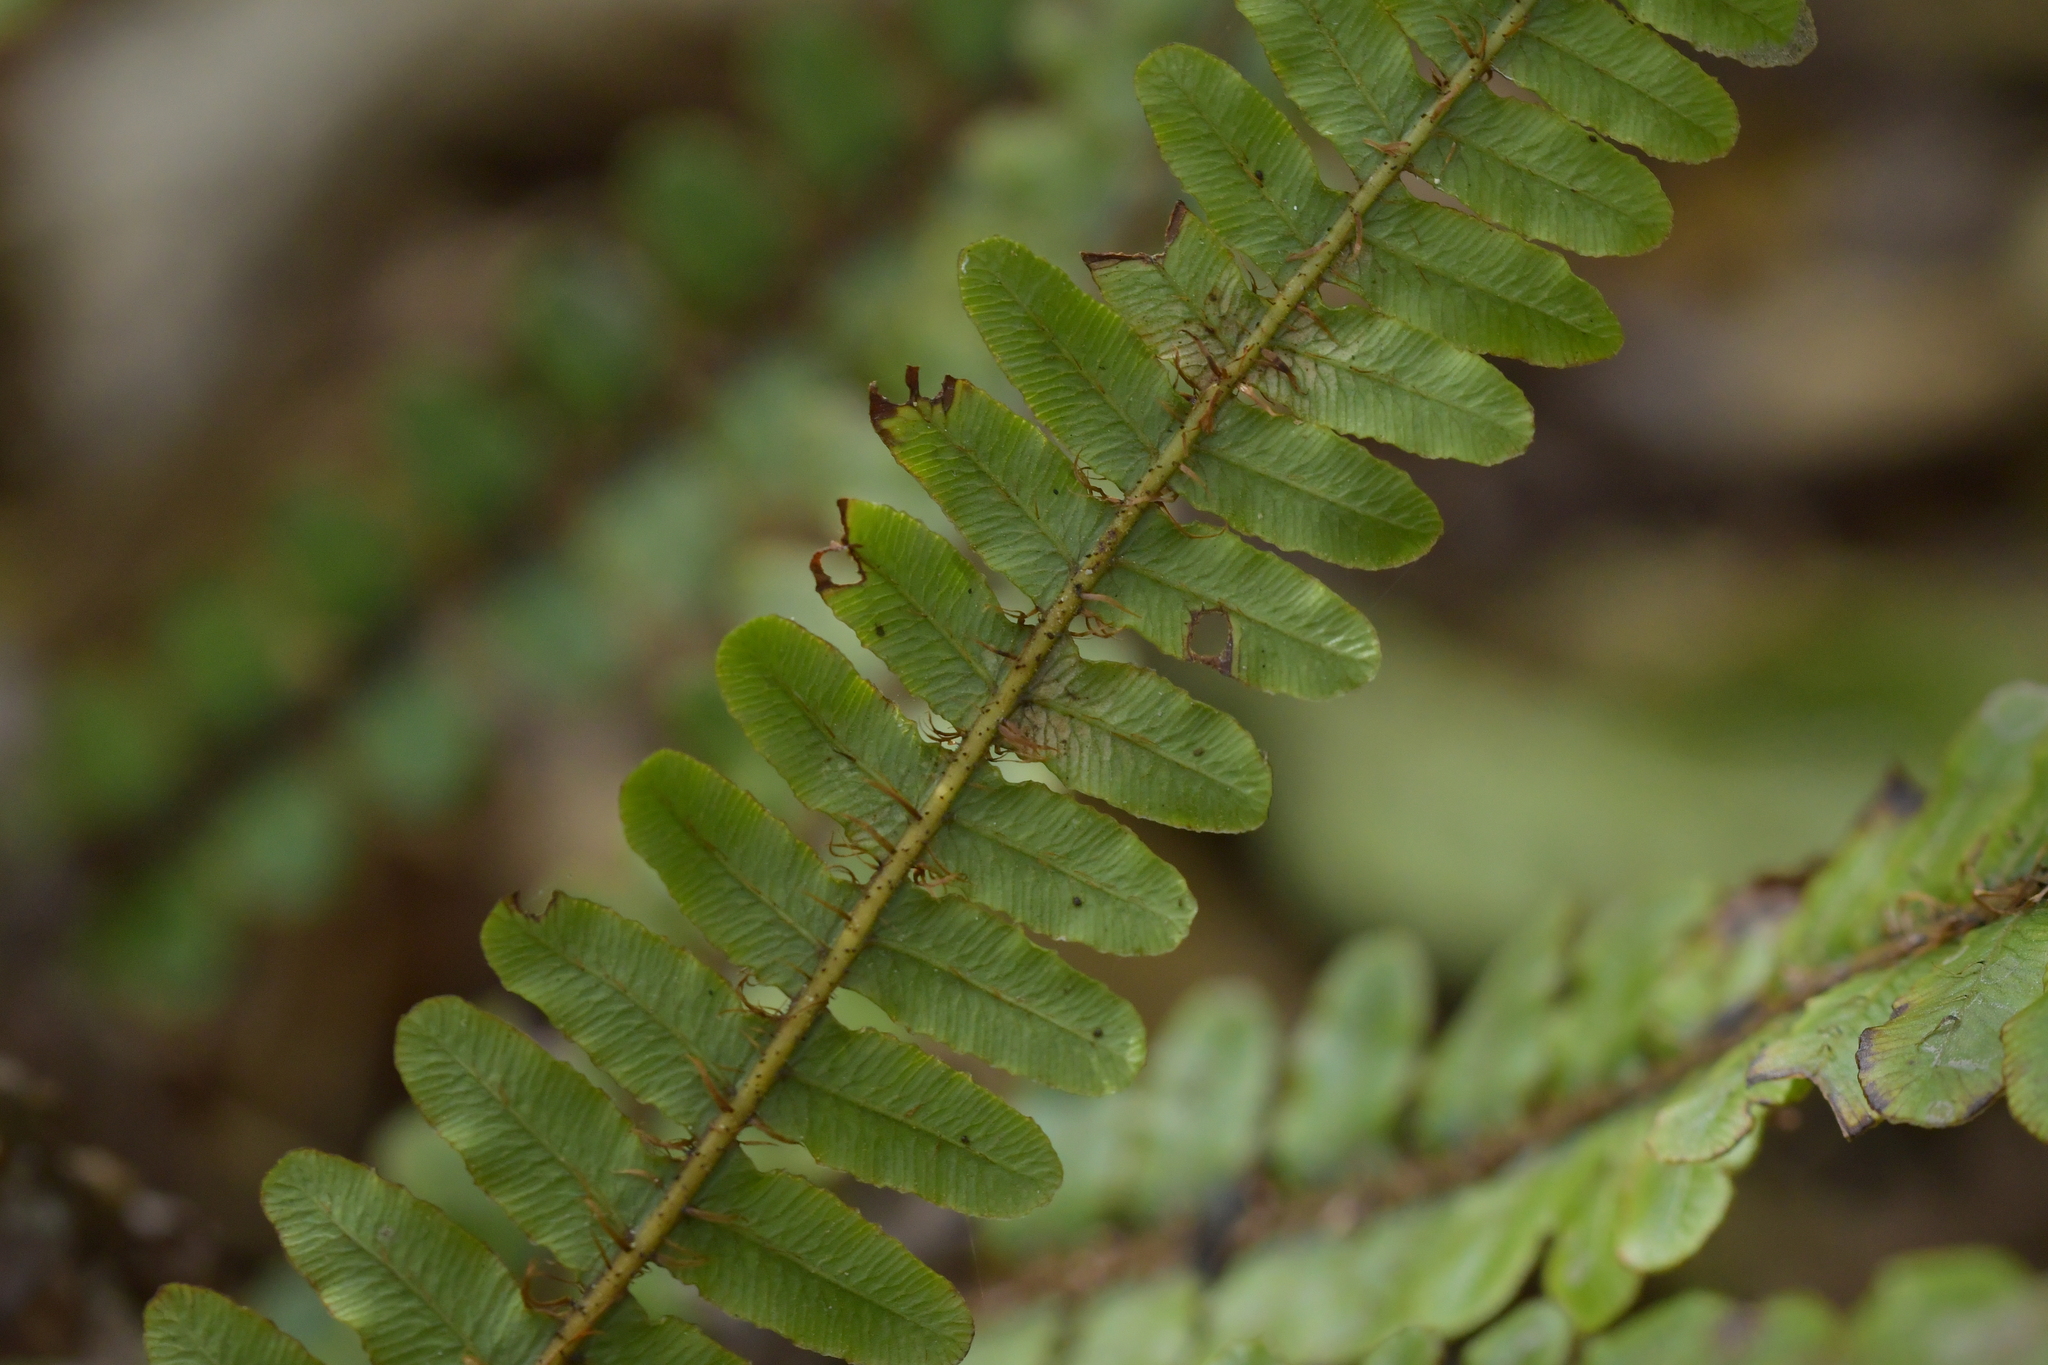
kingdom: Plantae
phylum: Tracheophyta
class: Polypodiopsida
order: Polypodiales
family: Blechnaceae
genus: Cranfillia
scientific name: Cranfillia fluviatilis
